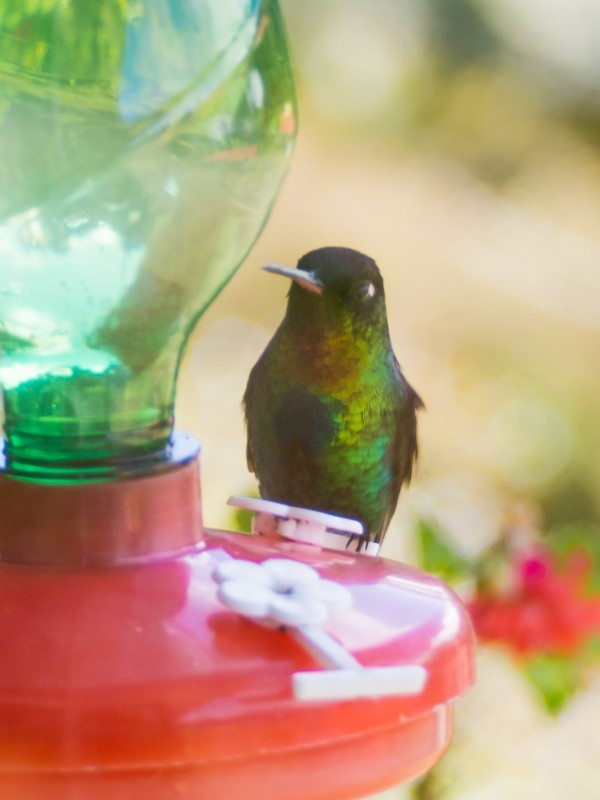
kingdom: Animalia
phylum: Chordata
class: Aves
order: Apodiformes
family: Trochilidae
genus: Panterpe
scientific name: Panterpe insignis
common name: Fiery-throated hummingbird
